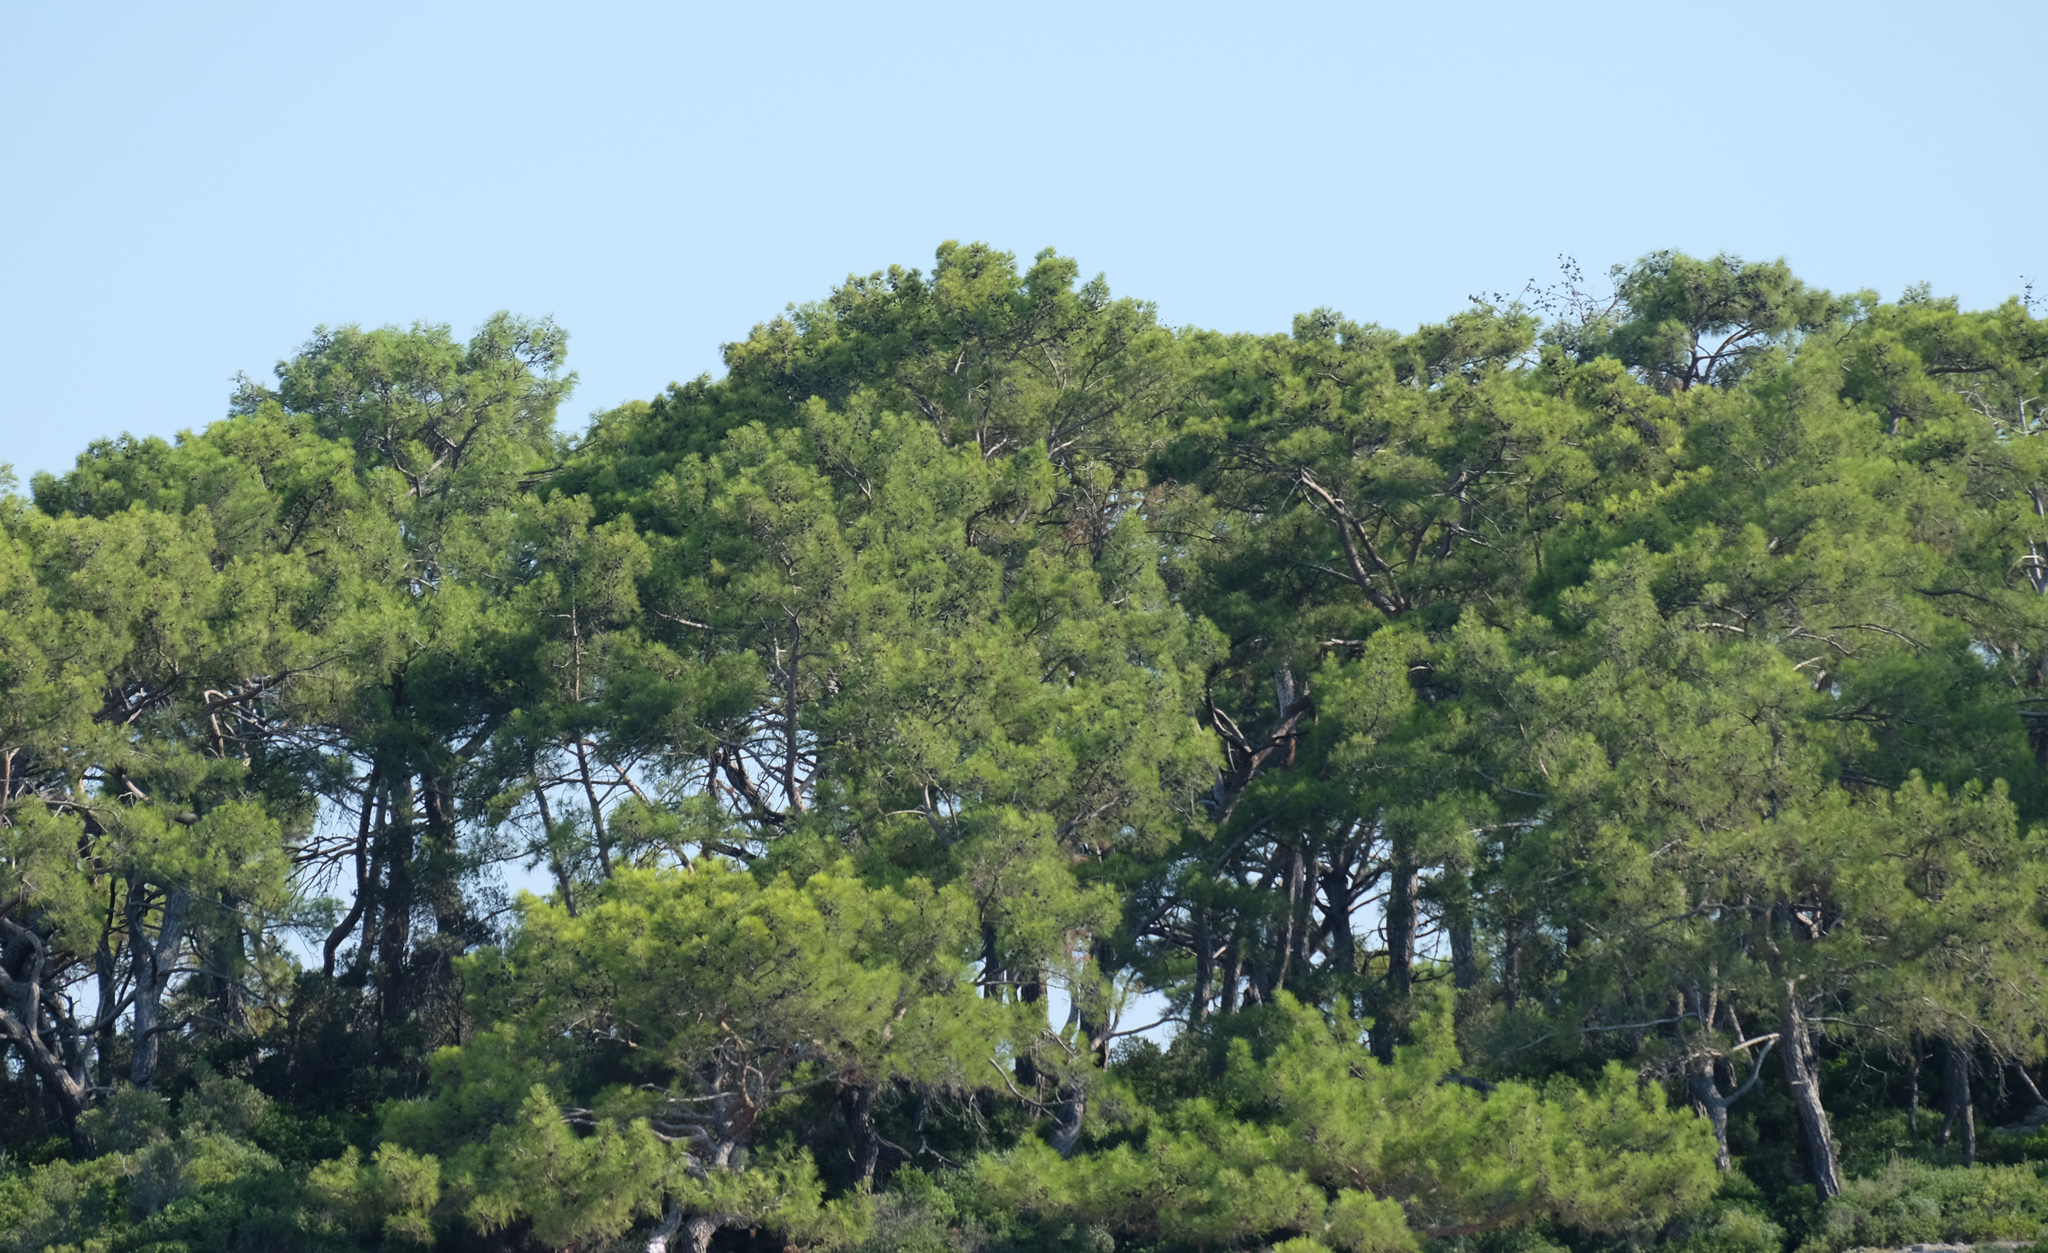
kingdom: Plantae
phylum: Tracheophyta
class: Pinopsida
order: Pinales
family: Pinaceae
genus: Pinus
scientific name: Pinus brutia
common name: Turkish pine
